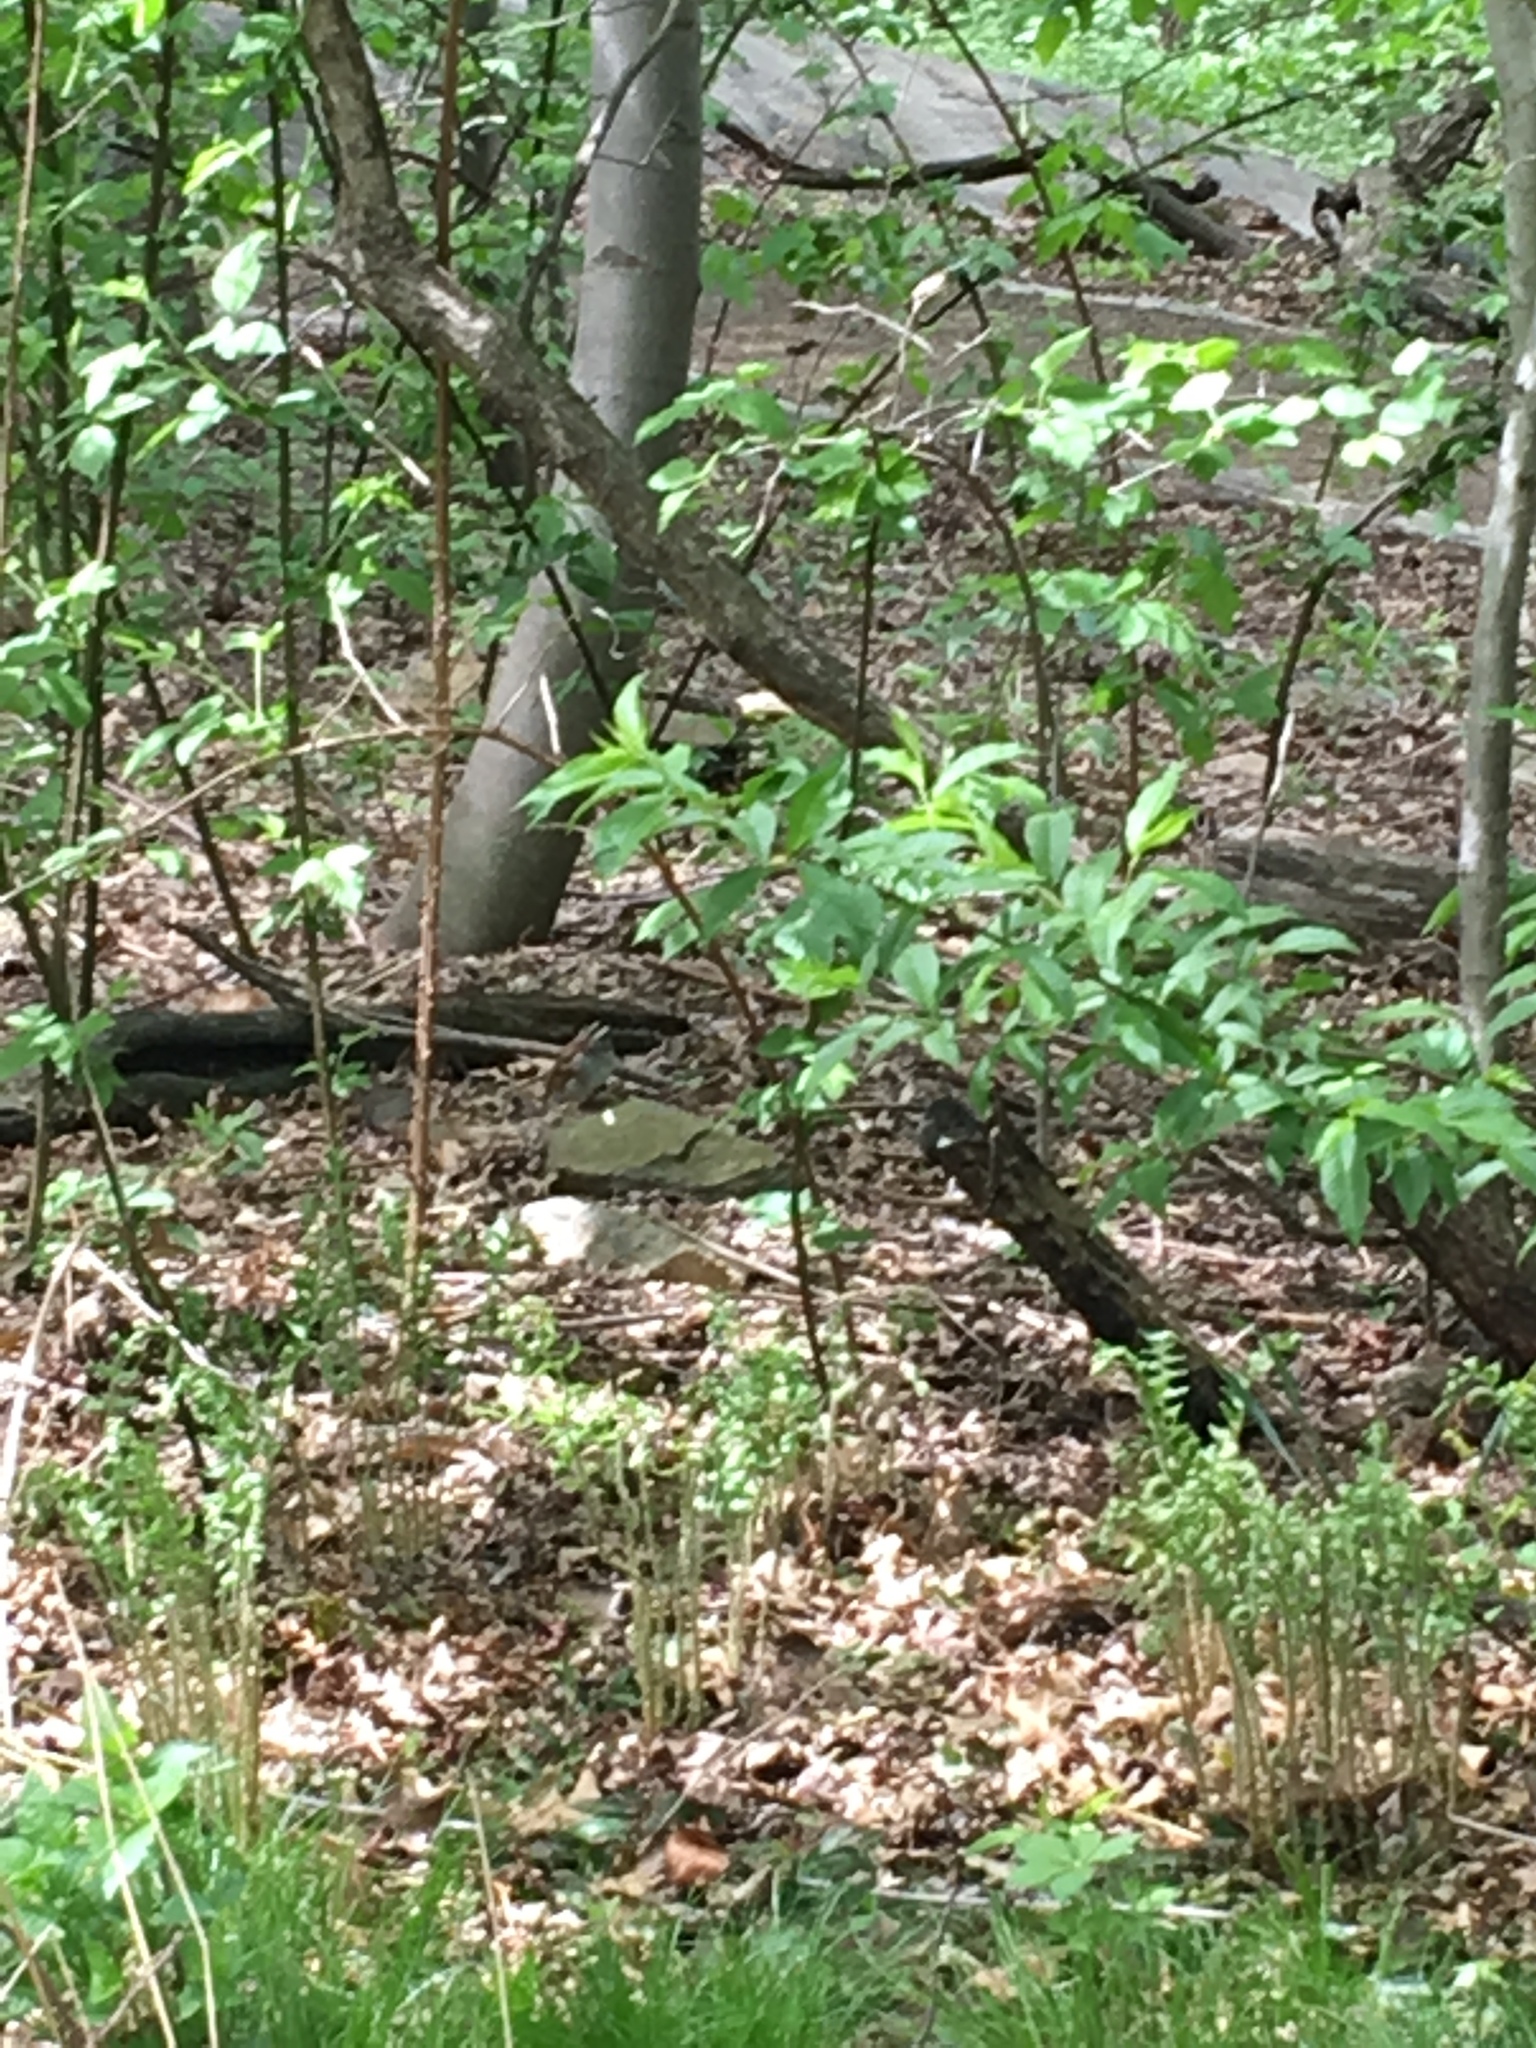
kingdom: Animalia
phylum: Chordata
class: Aves
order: Passeriformes
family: Passerellidae
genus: Zonotrichia
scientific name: Zonotrichia albicollis
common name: White-throated sparrow
